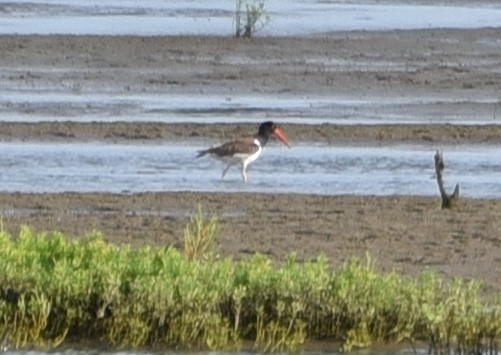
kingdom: Animalia
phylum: Chordata
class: Aves
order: Charadriiformes
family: Haematopodidae
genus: Haematopus
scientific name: Haematopus palliatus
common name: American oystercatcher
